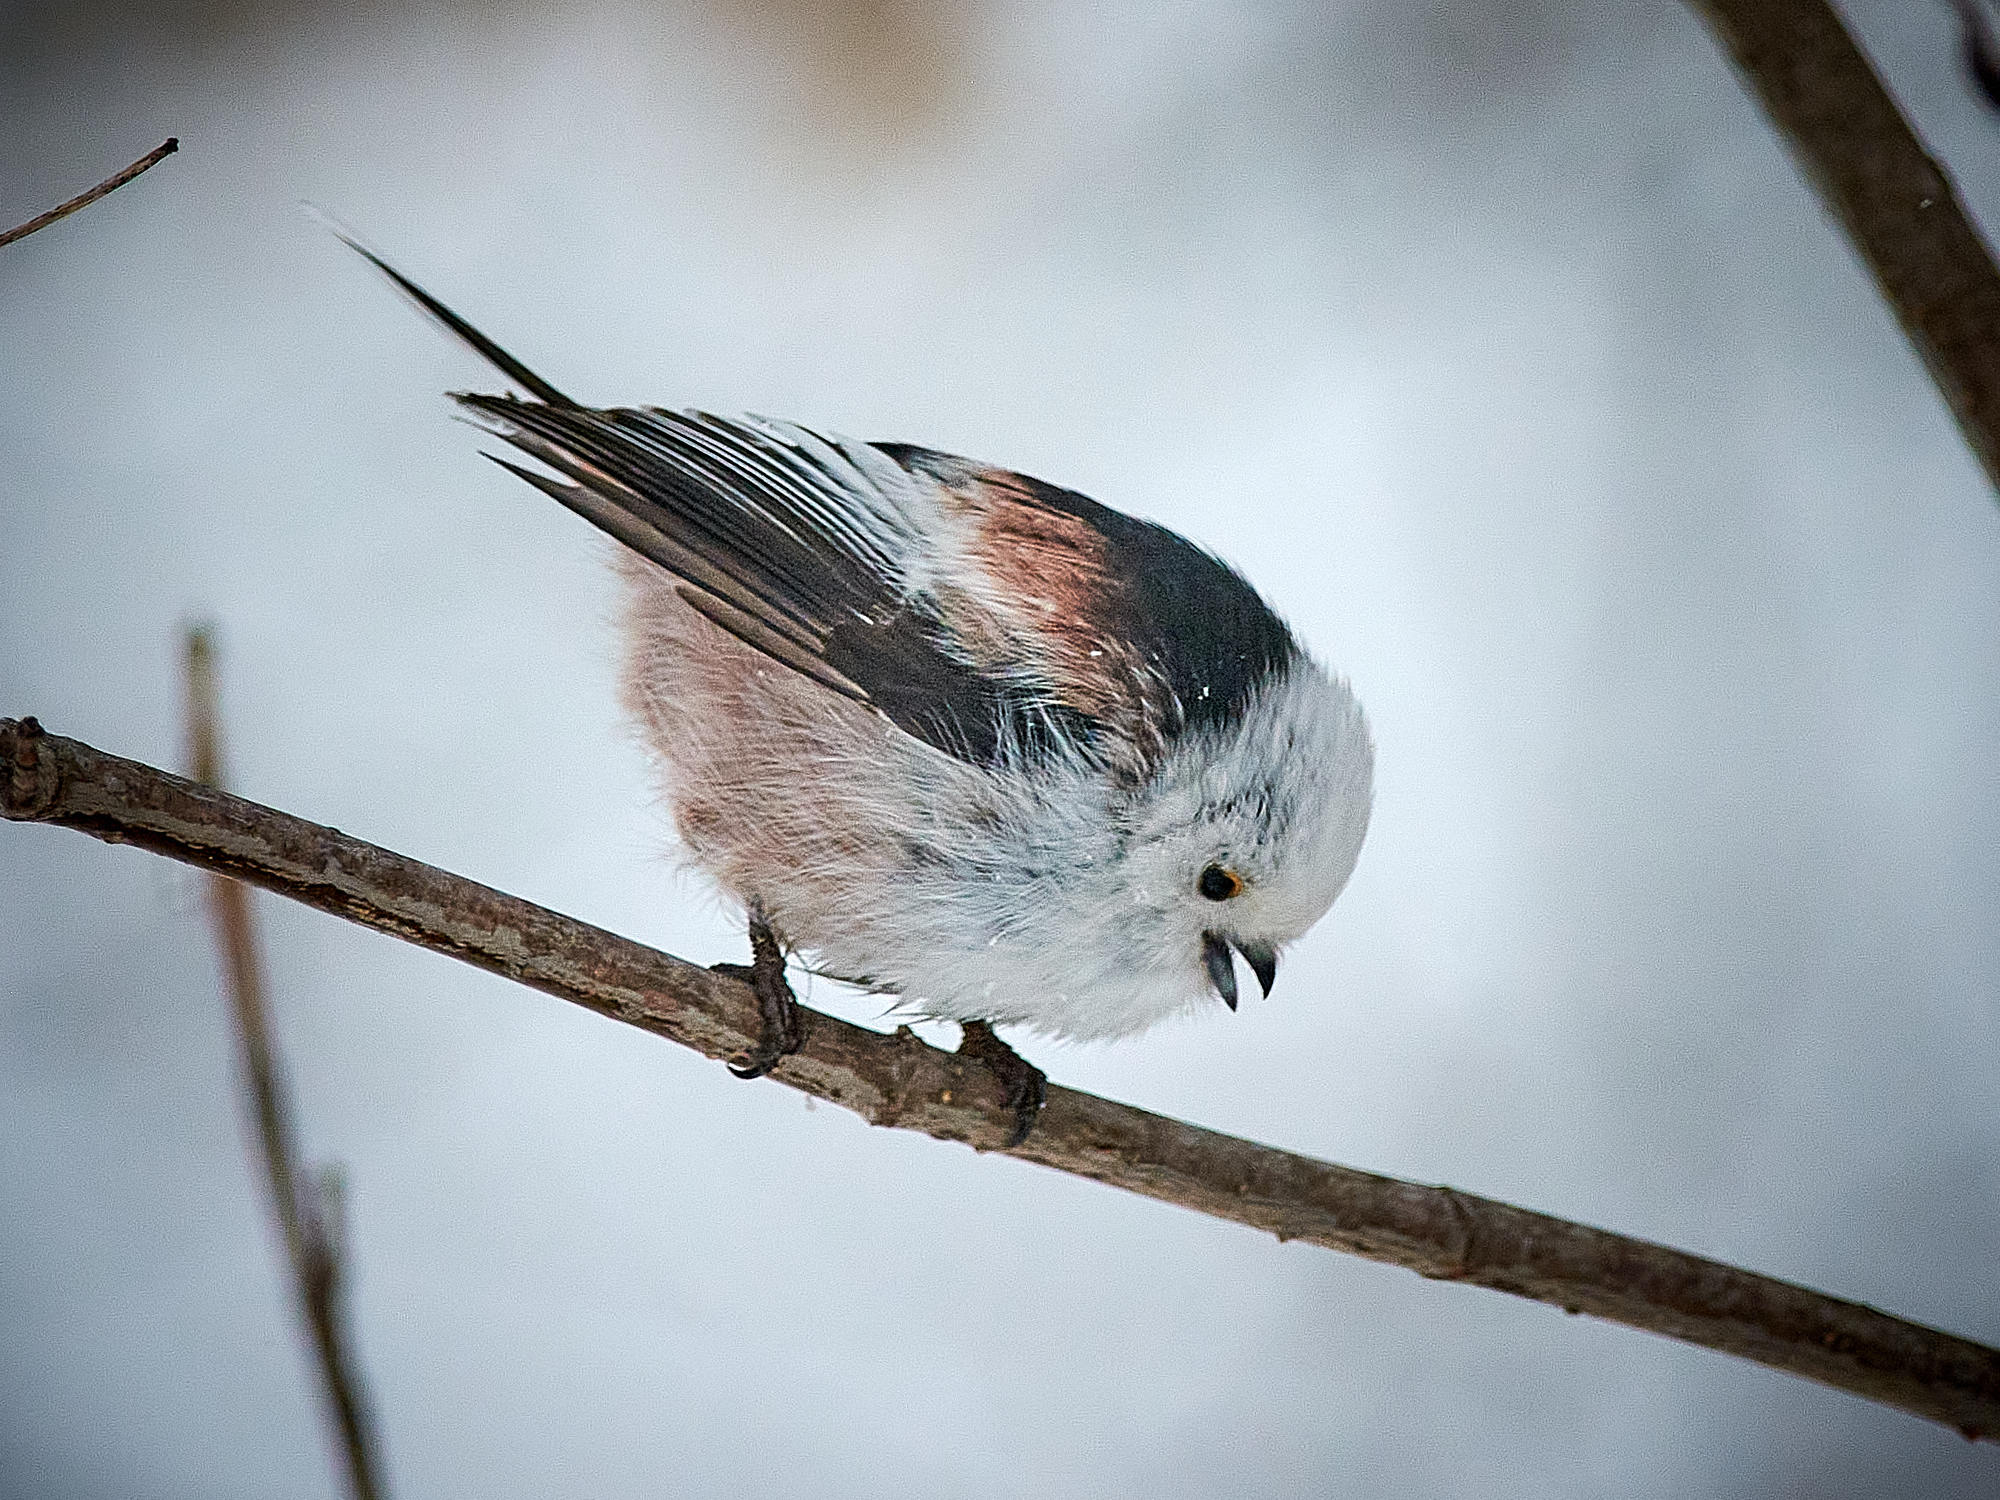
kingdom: Animalia
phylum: Chordata
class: Aves
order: Passeriformes
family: Aegithalidae
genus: Aegithalos
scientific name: Aegithalos caudatus
